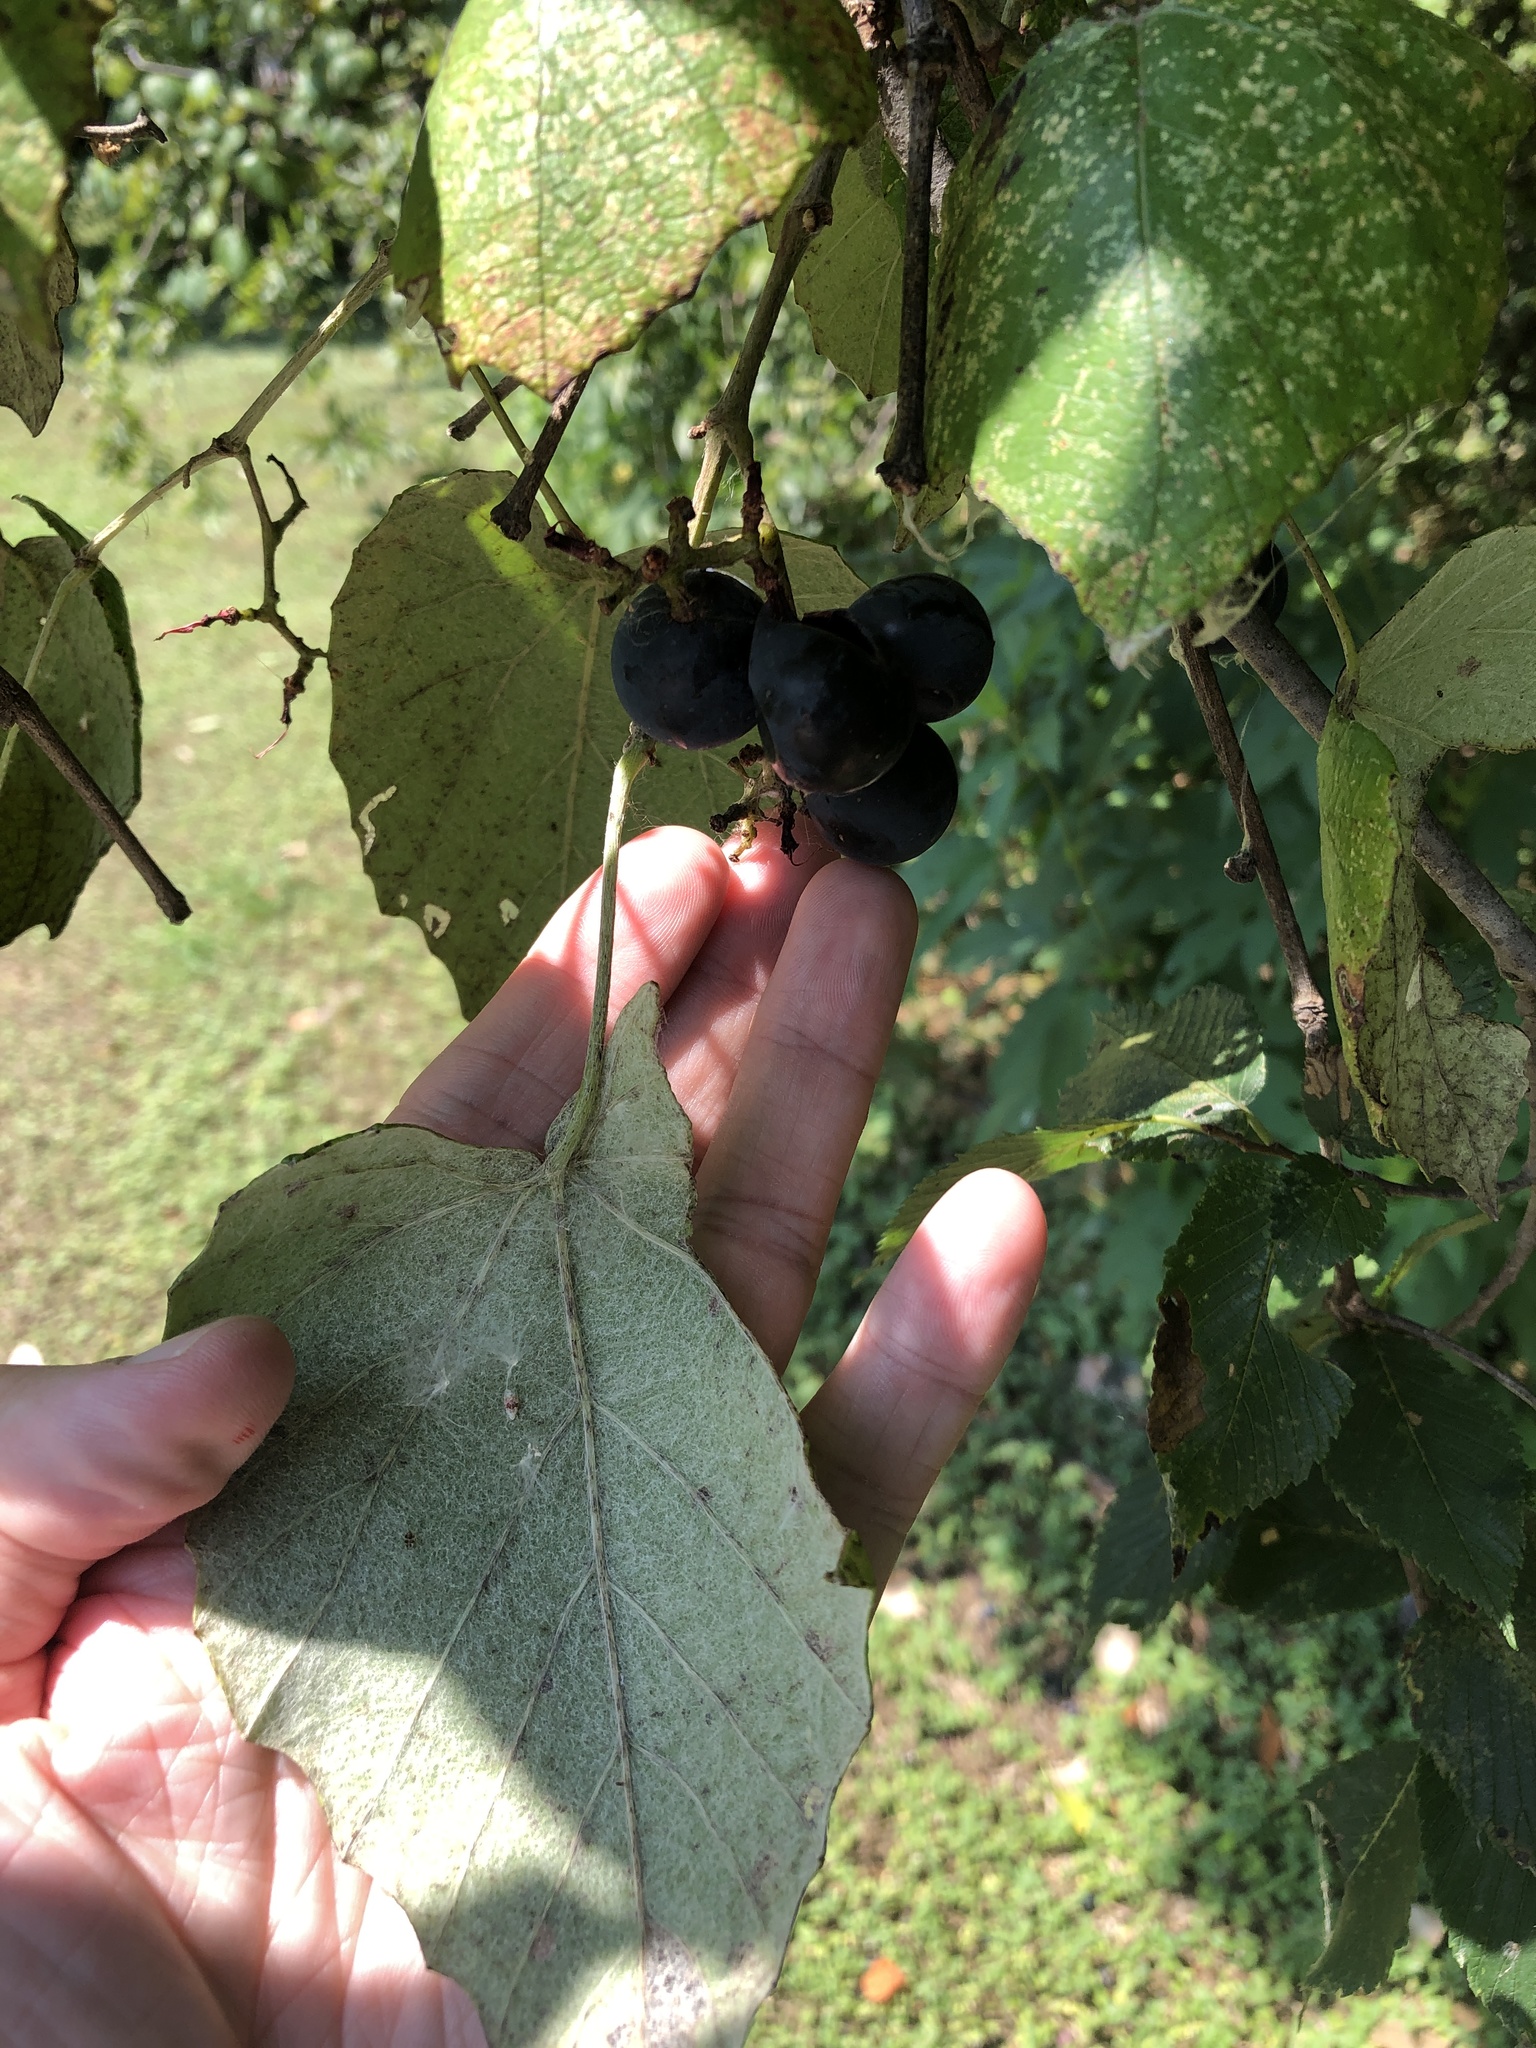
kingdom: Plantae
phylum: Tracheophyta
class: Magnoliopsida
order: Vitales
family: Vitaceae
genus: Vitis
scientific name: Vitis mustangensis
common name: Mustang grape
